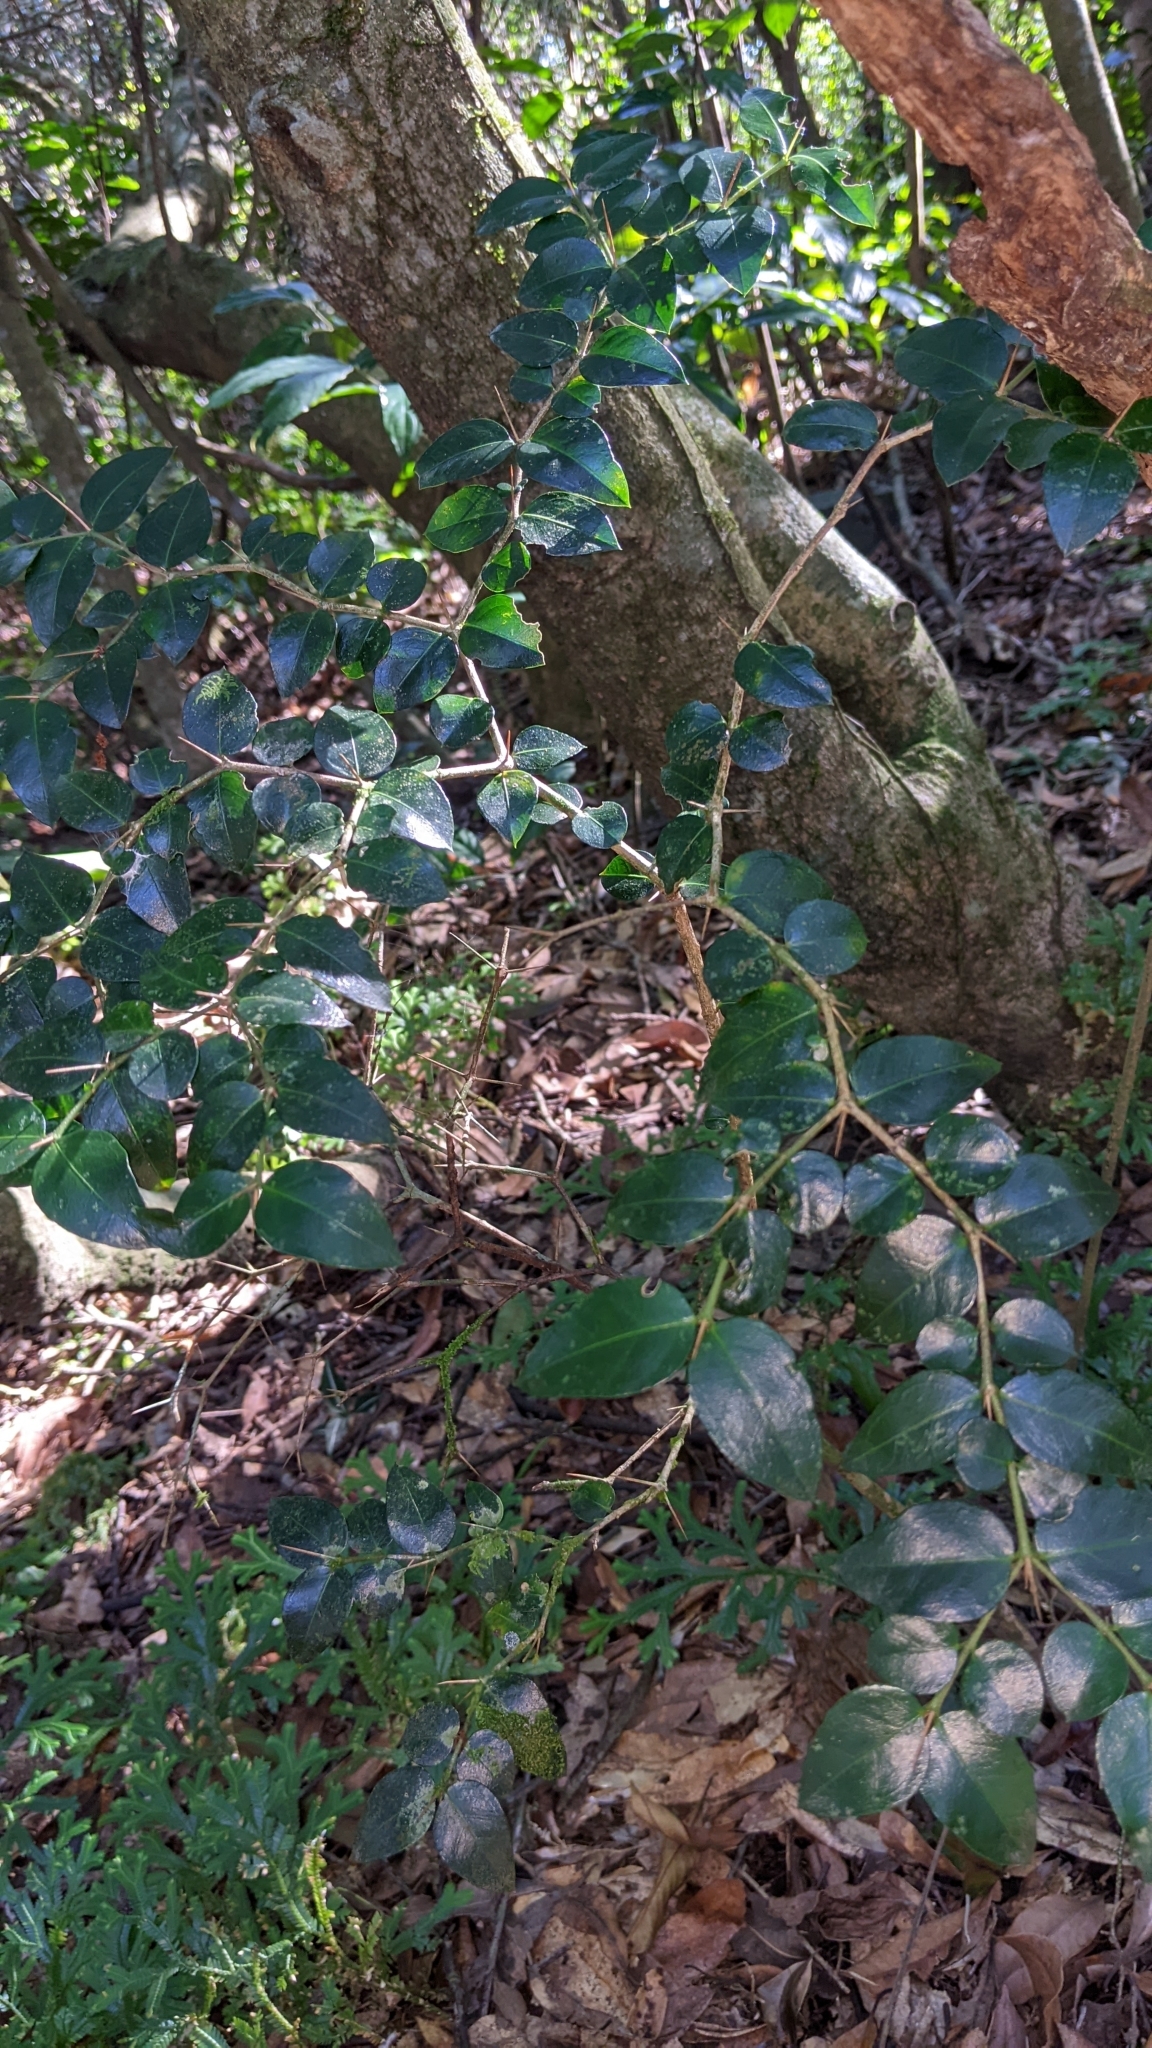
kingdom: Plantae
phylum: Tracheophyta
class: Magnoliopsida
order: Gentianales
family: Rubiaceae
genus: Damnacanthus
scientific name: Damnacanthus indicus
